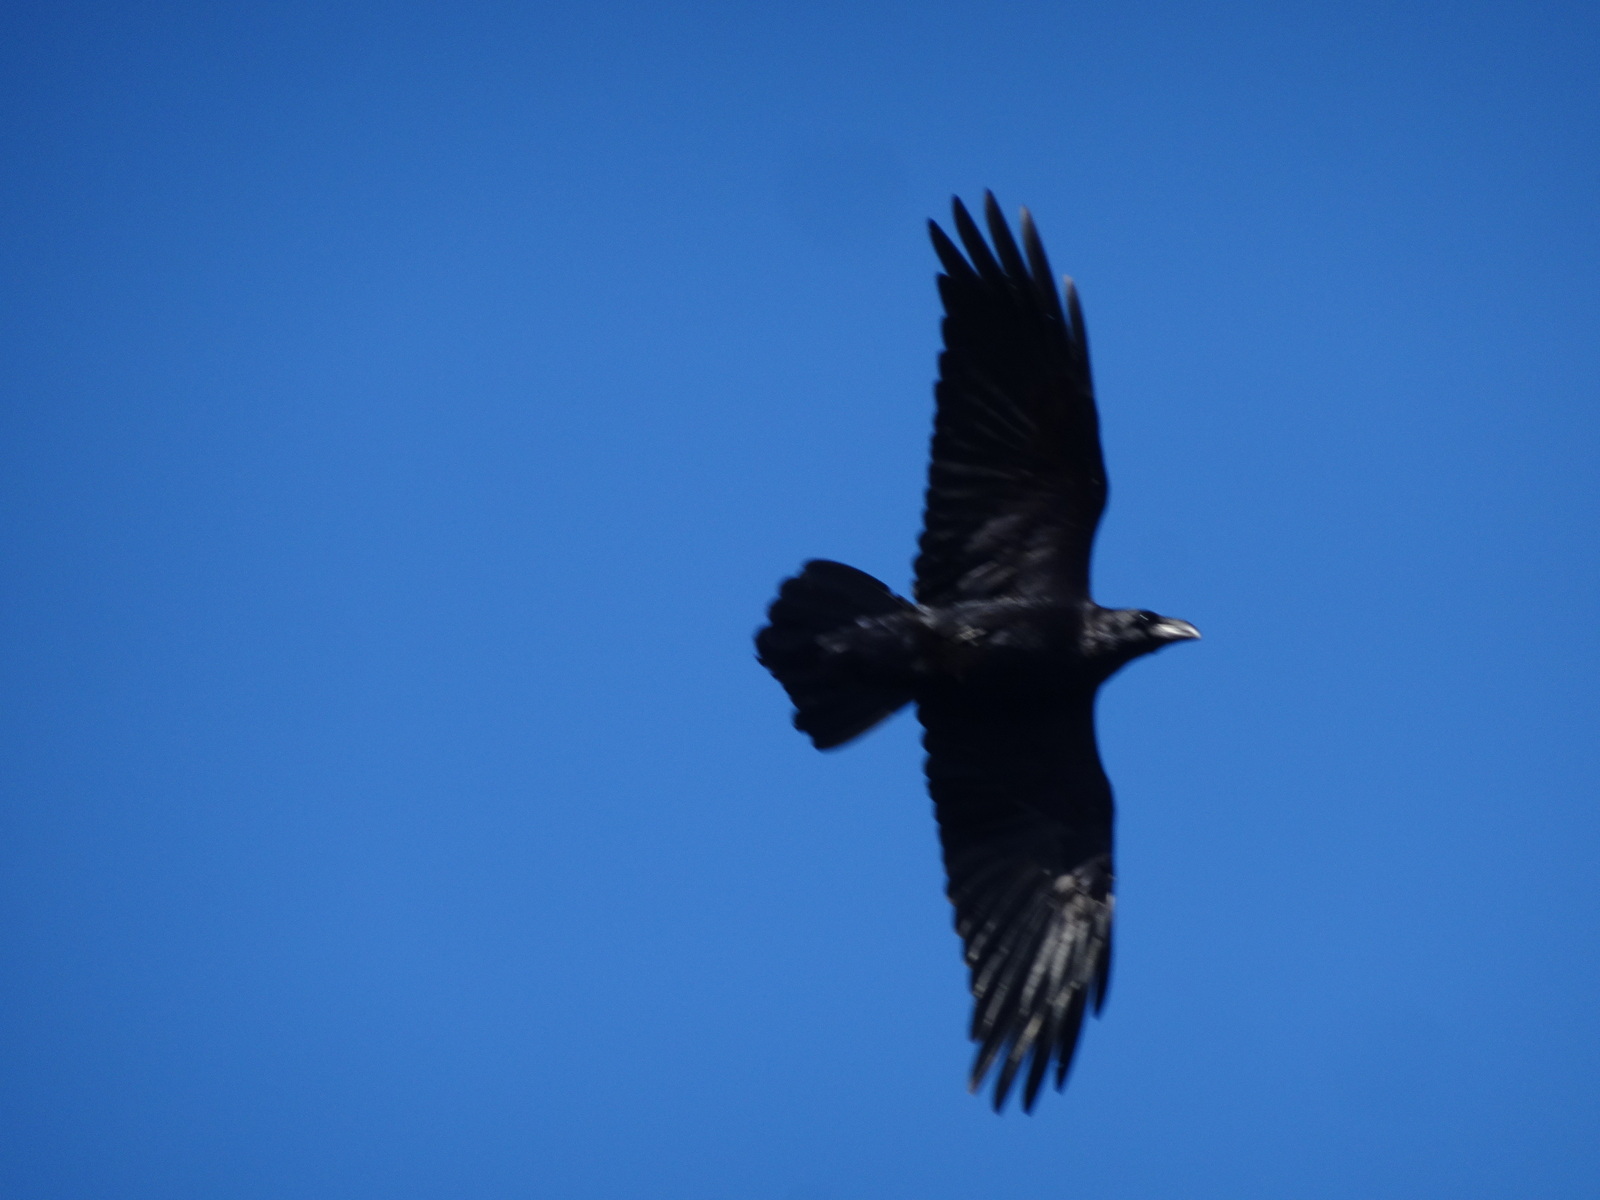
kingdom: Animalia
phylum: Chordata
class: Aves
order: Passeriformes
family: Corvidae
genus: Corvus
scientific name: Corvus corax
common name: Common raven
